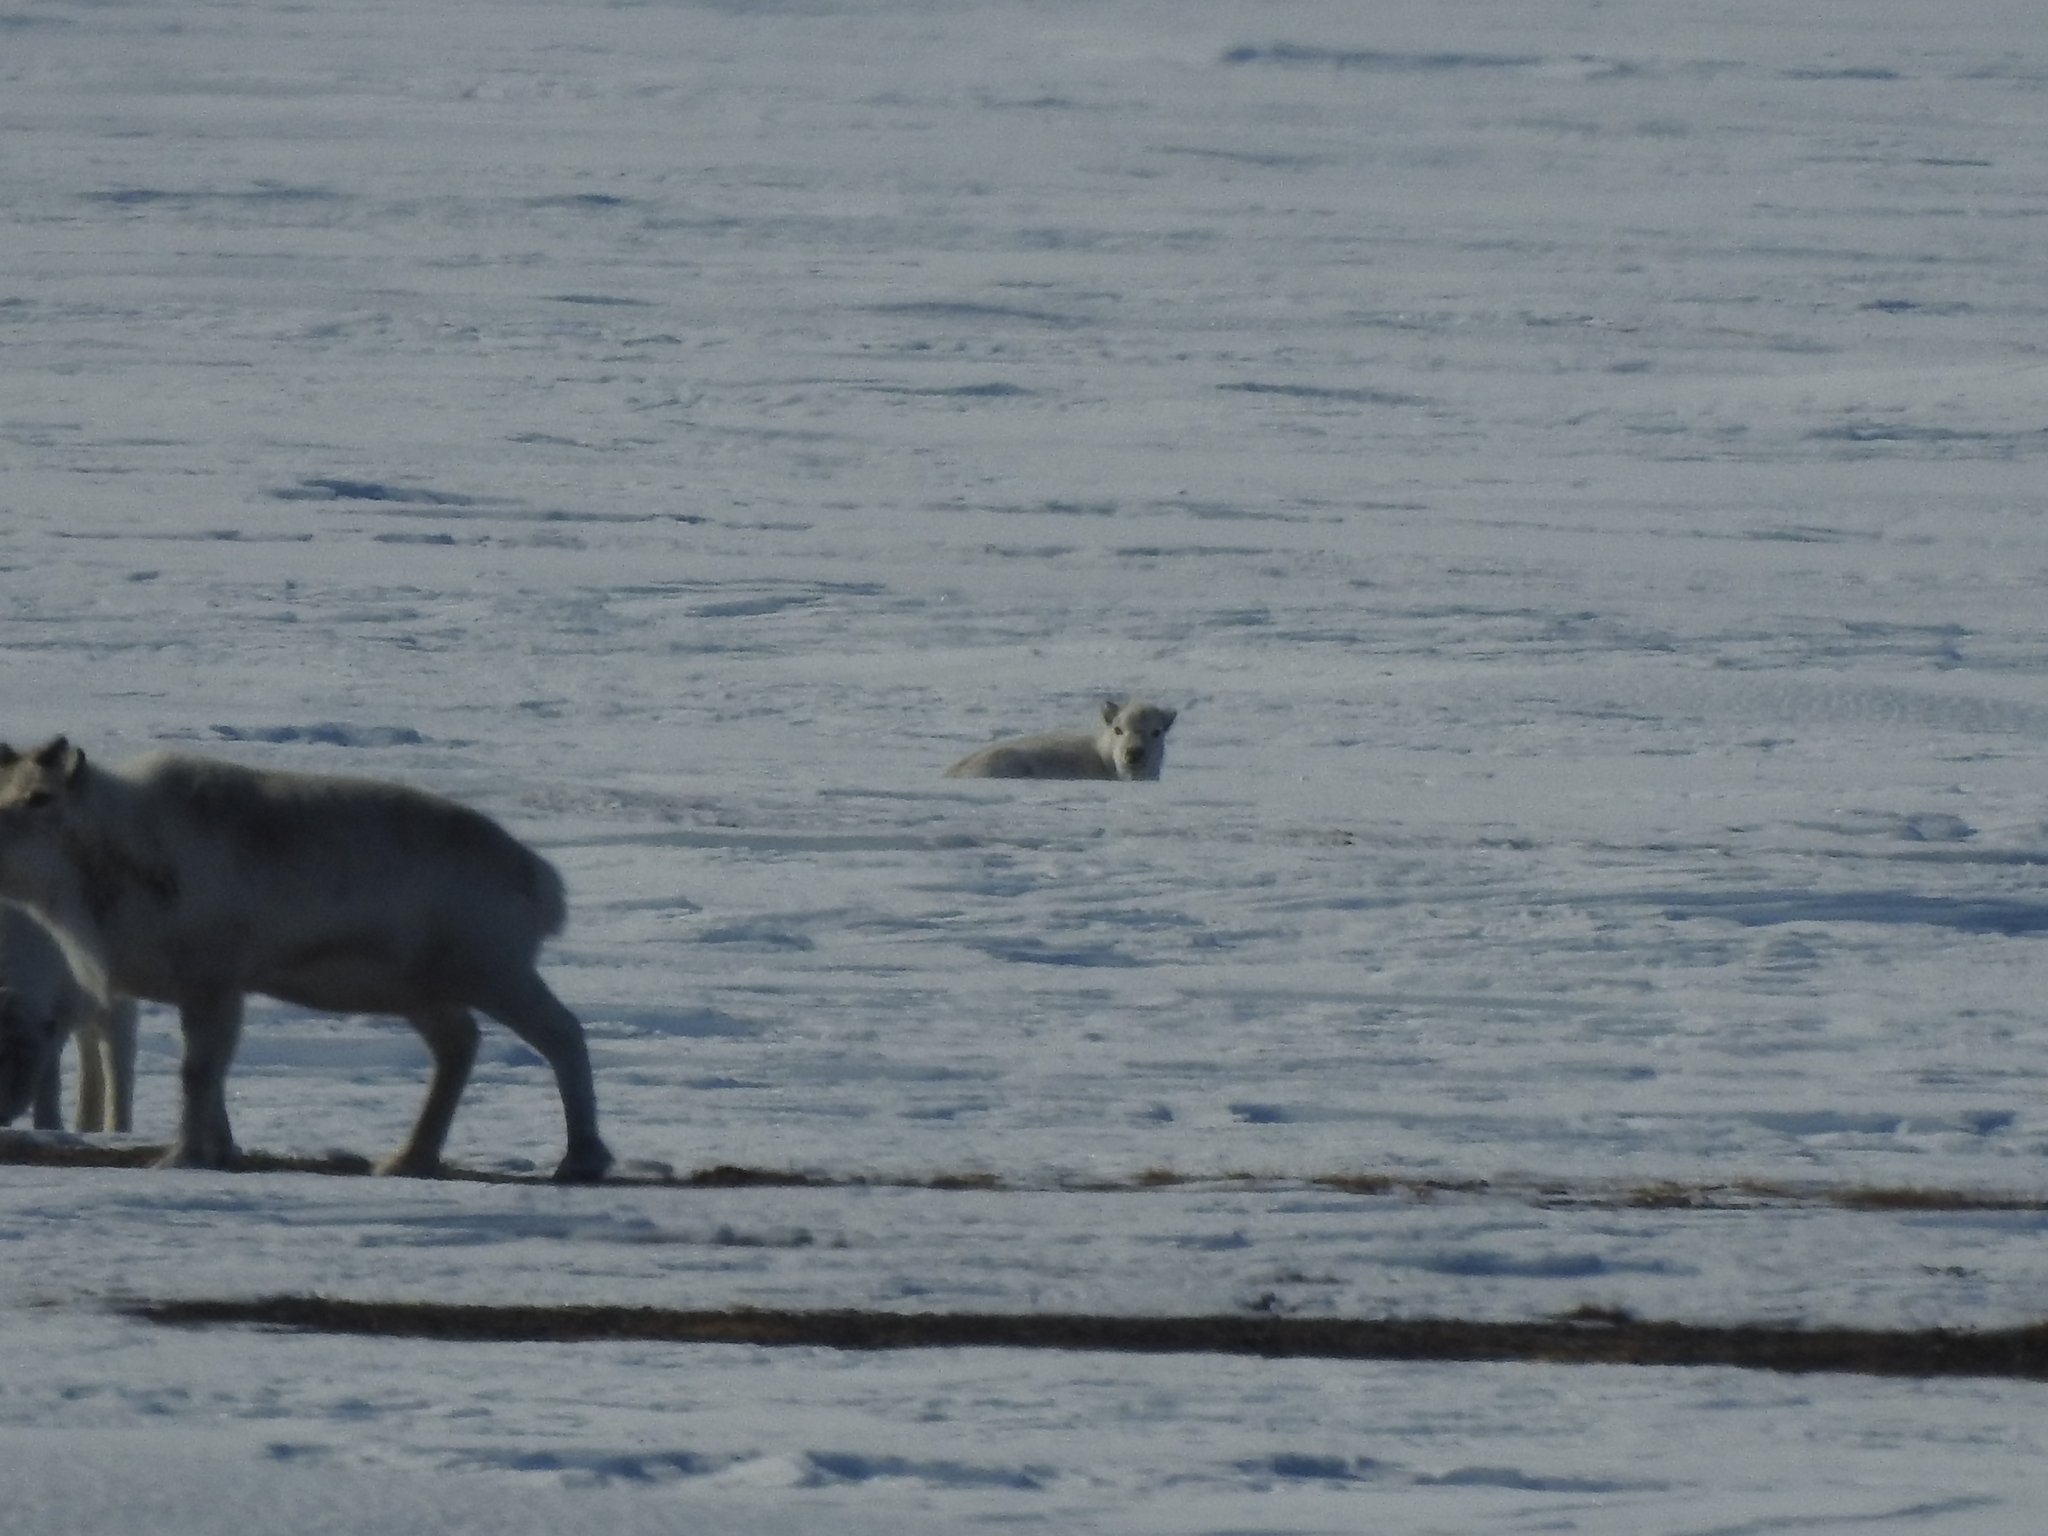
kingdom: Animalia
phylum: Chordata
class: Mammalia
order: Artiodactyla
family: Cervidae
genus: Rangifer
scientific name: Rangifer tarandus
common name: Reindeer
